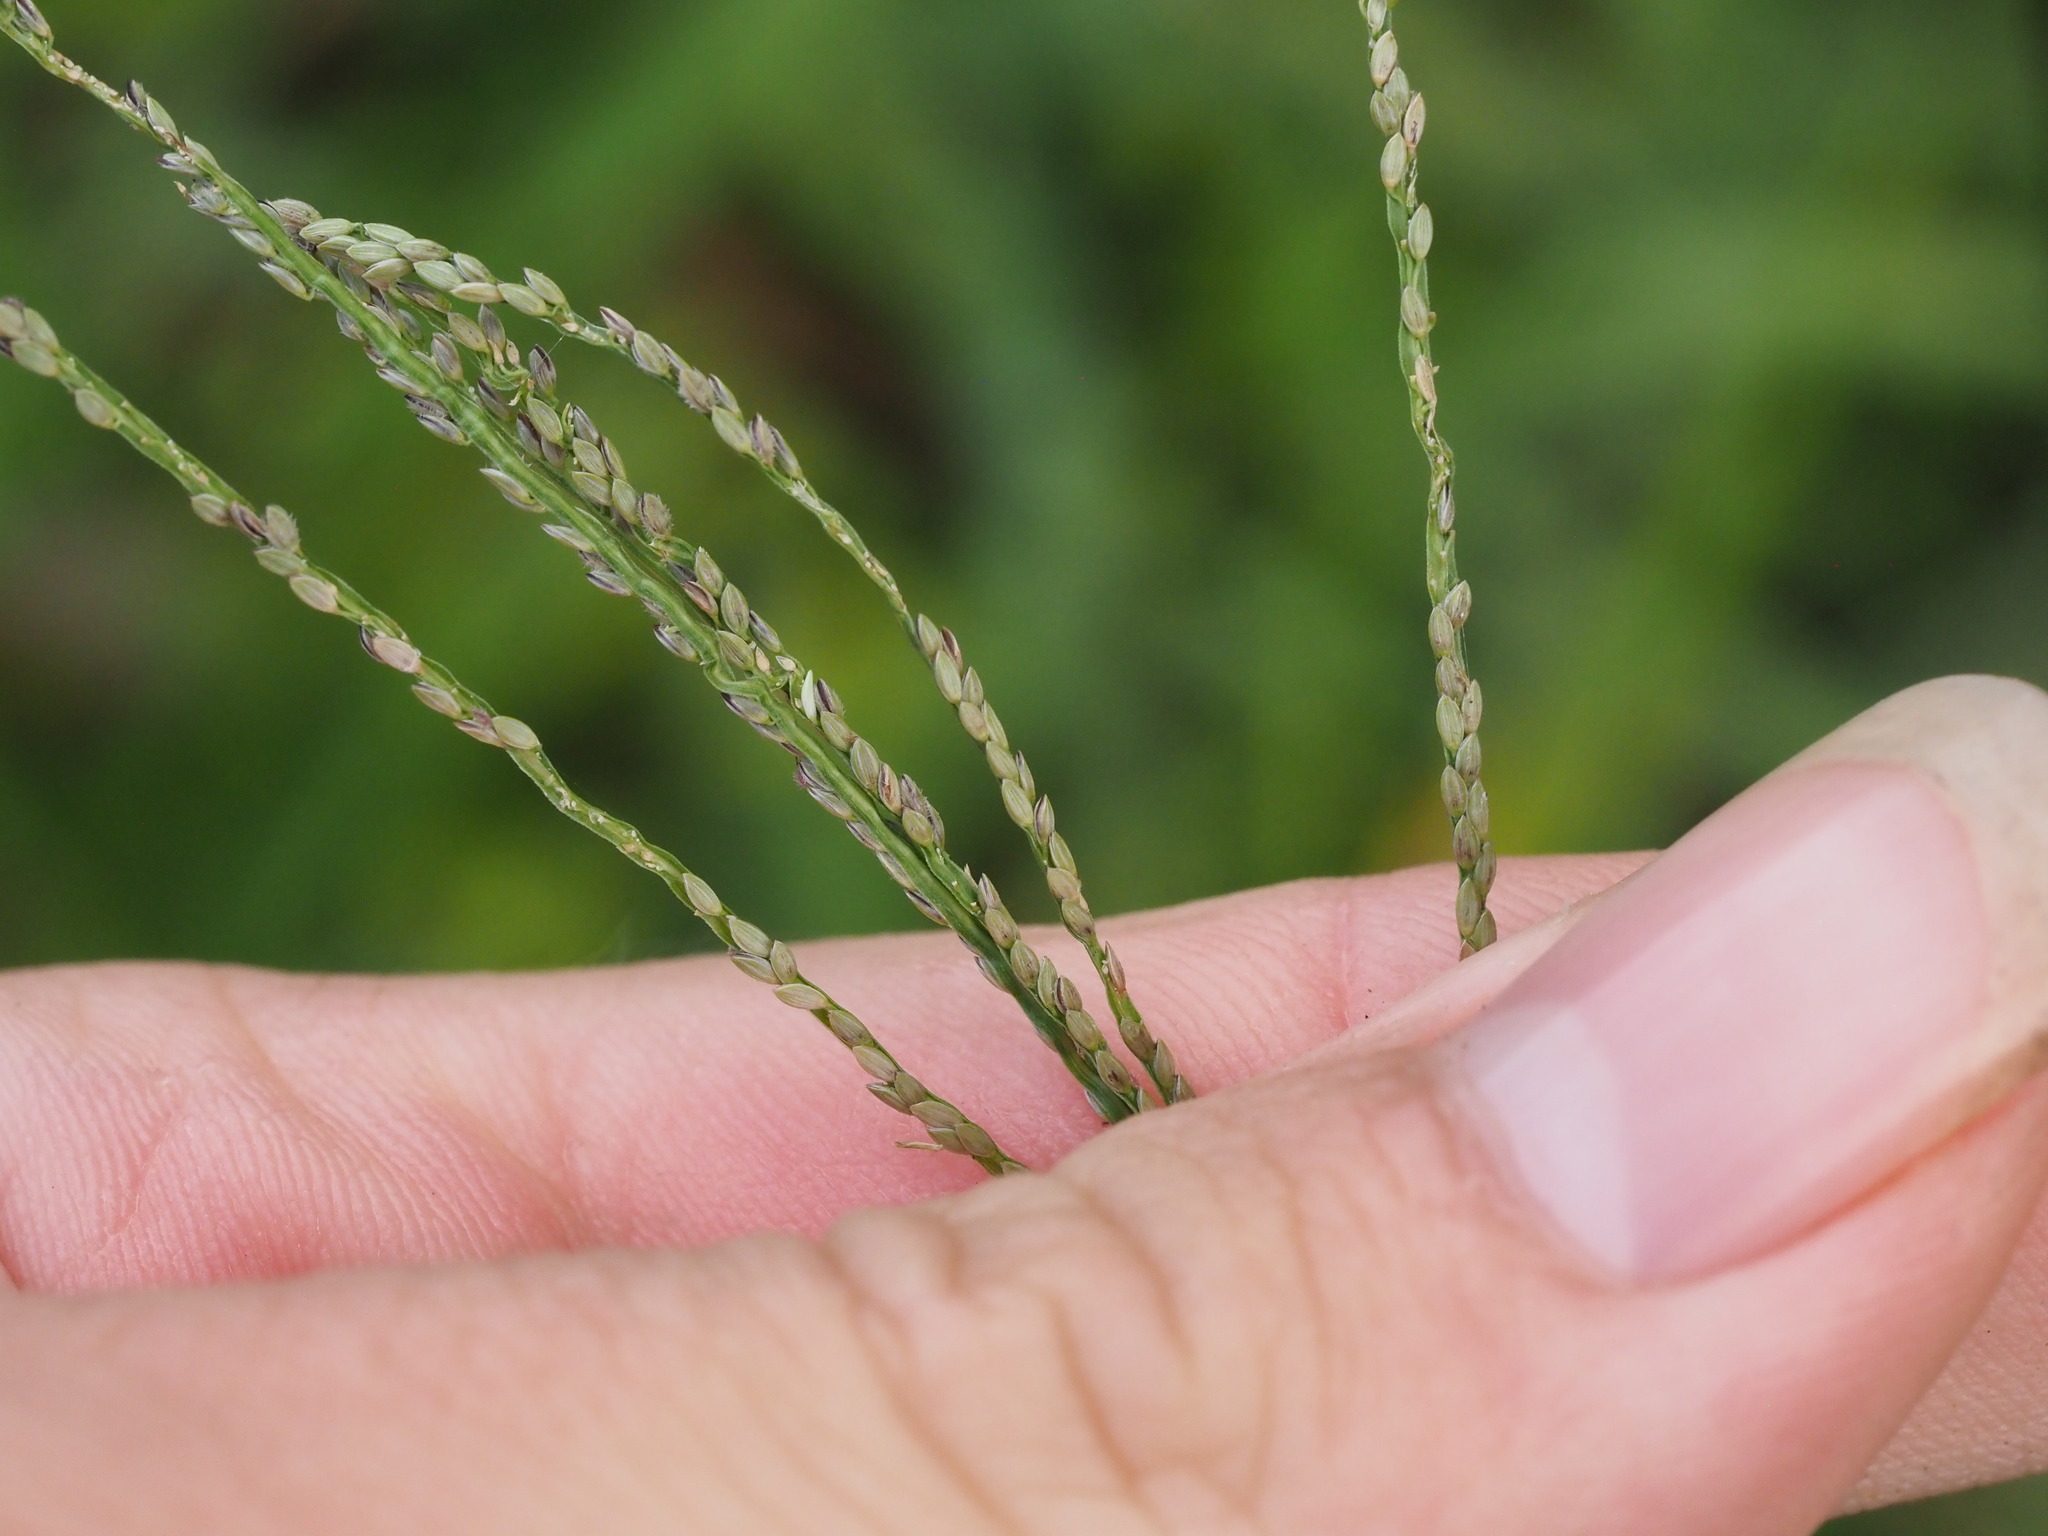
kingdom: Plantae
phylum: Tracheophyta
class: Liliopsida
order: Poales
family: Poaceae
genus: Digitaria
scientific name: Digitaria violascens
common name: Violet crabgrass
